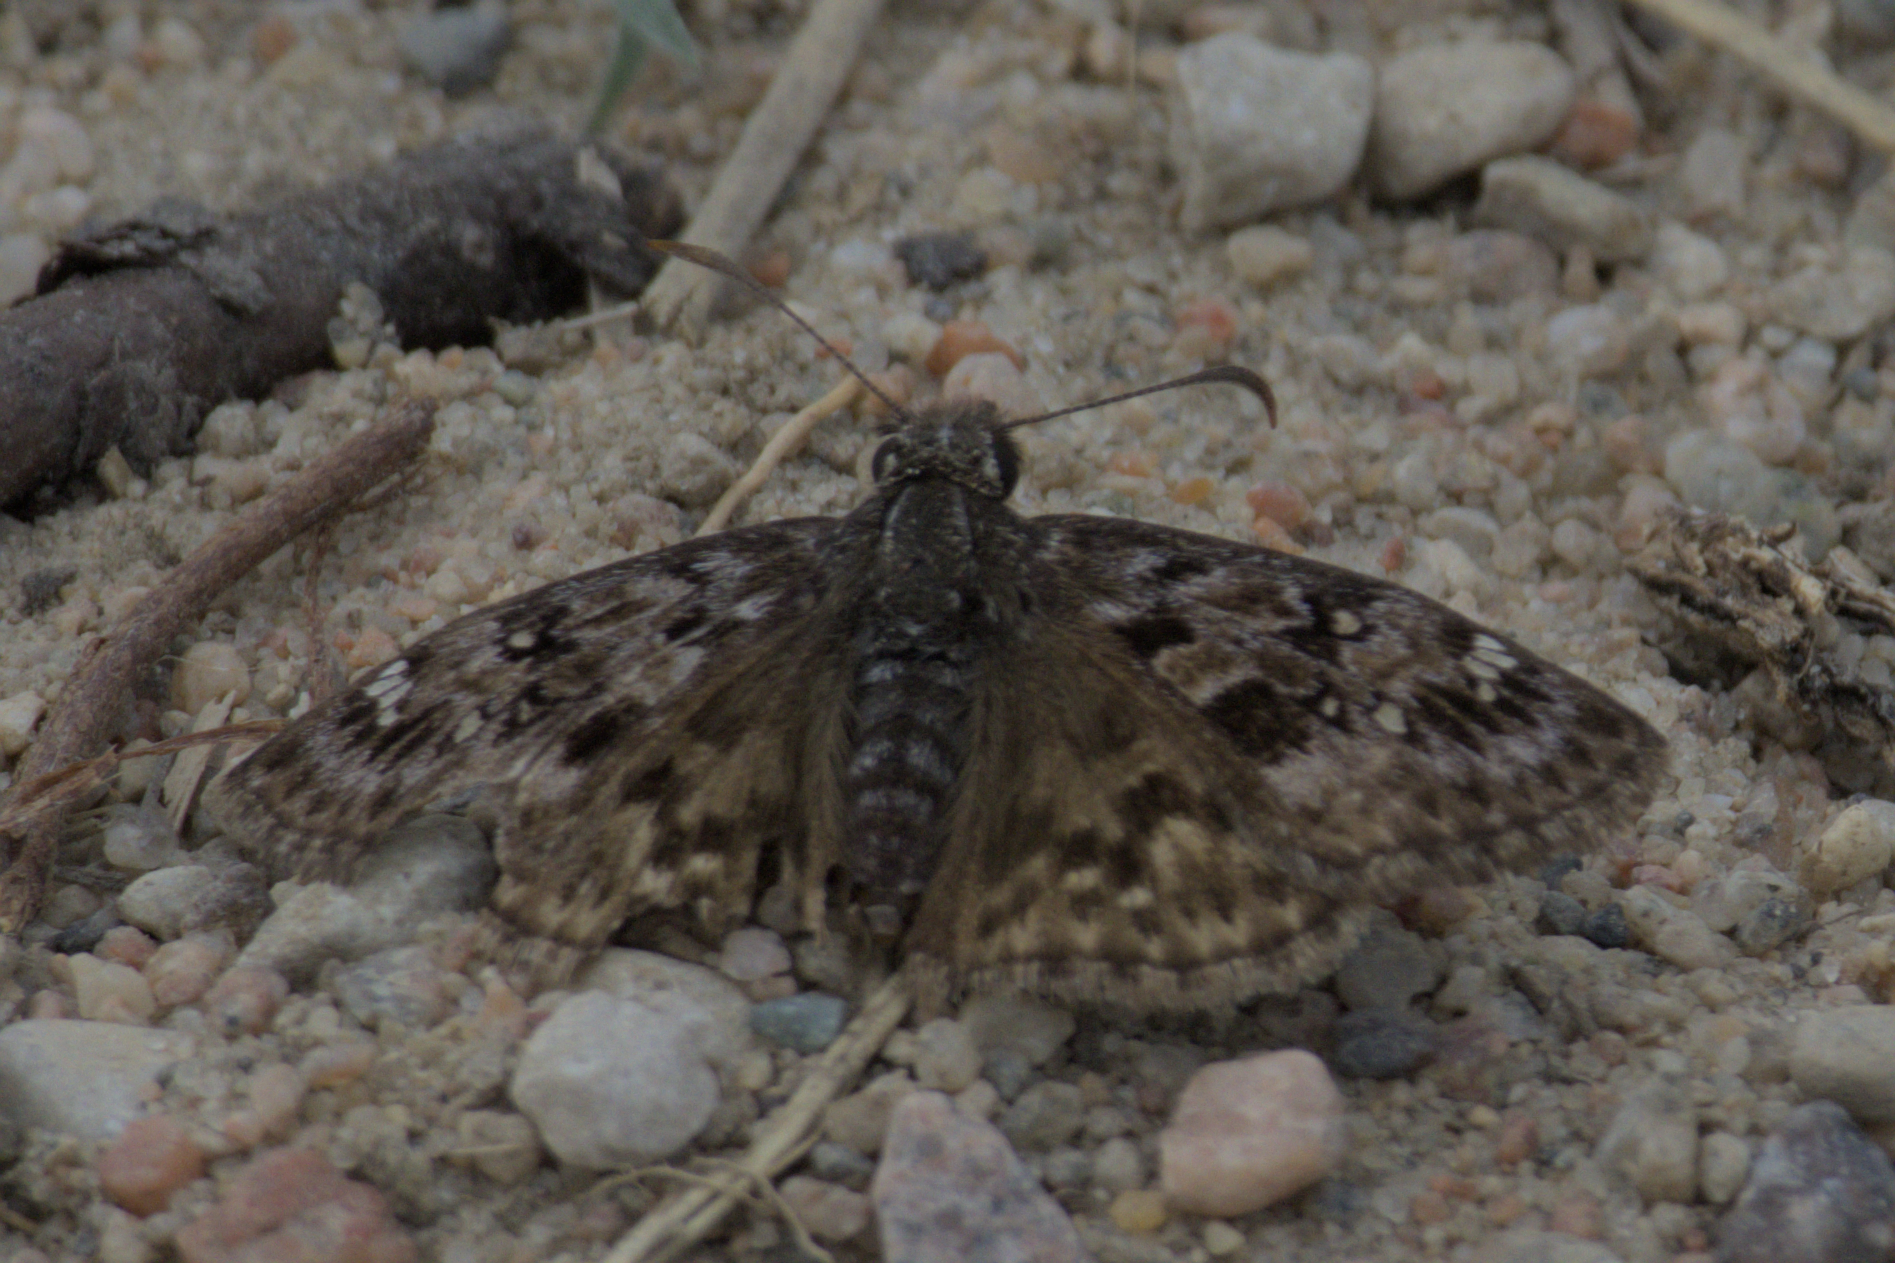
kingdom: Animalia
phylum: Arthropoda
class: Insecta
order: Lepidoptera
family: Hesperiidae
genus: Erynnis
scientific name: Erynnis martialis
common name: Mottled duskywing
